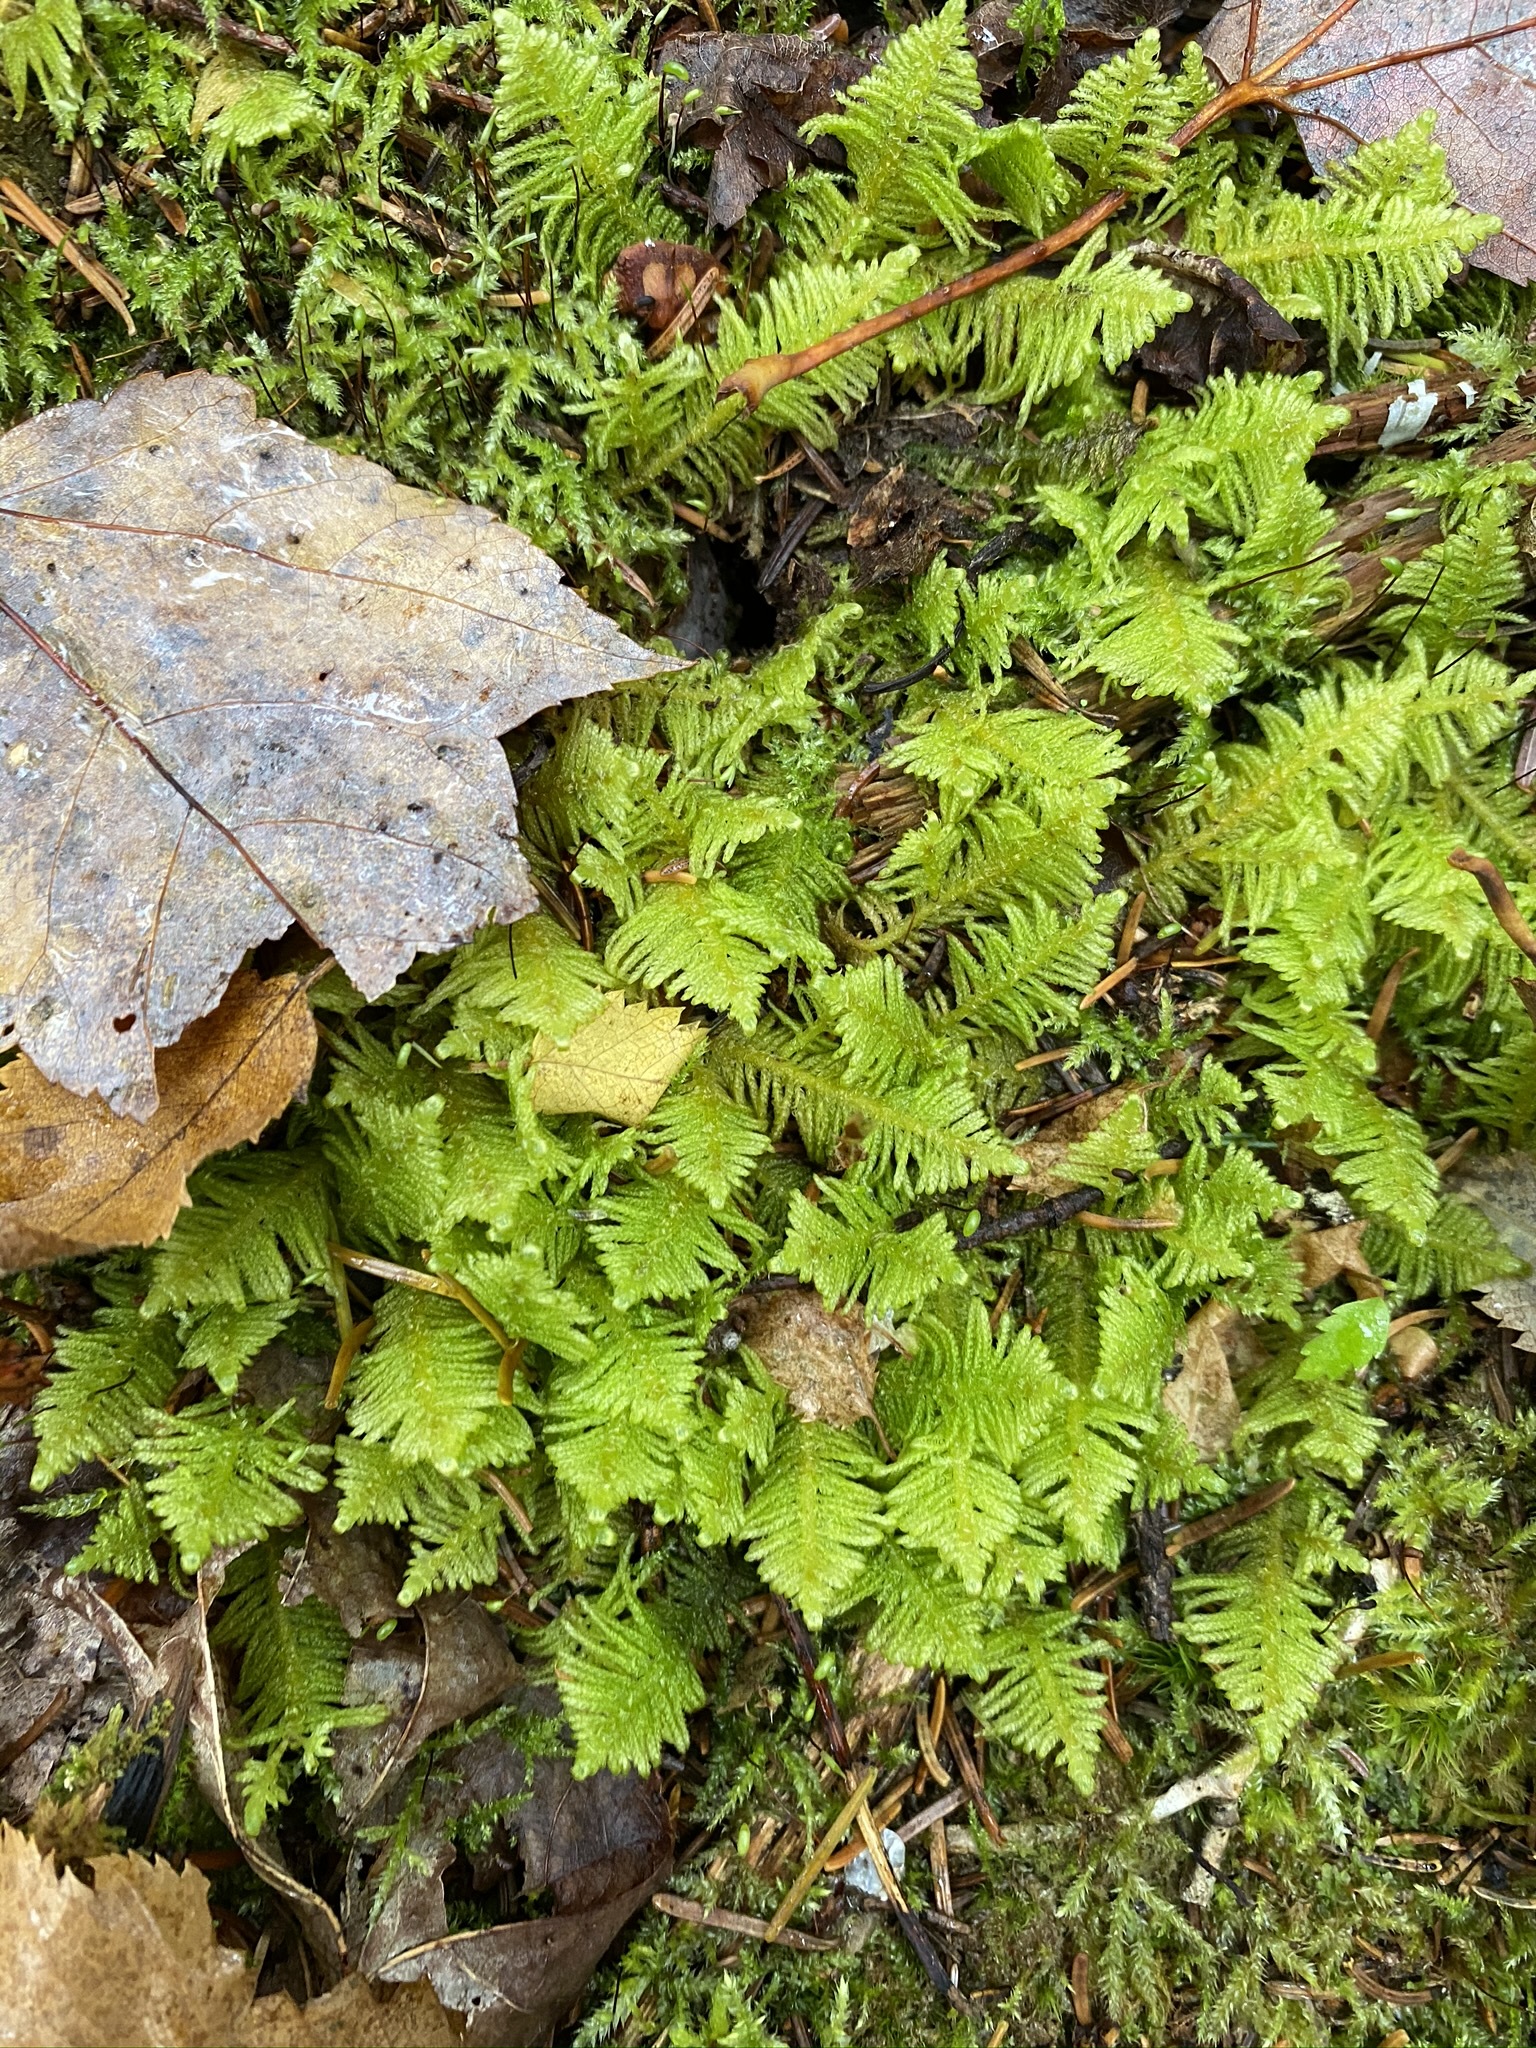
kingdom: Plantae
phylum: Bryophyta
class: Bryopsida
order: Hypnales
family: Pylaisiaceae
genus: Ptilium
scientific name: Ptilium crista-castrensis
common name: Knight's plume moss
